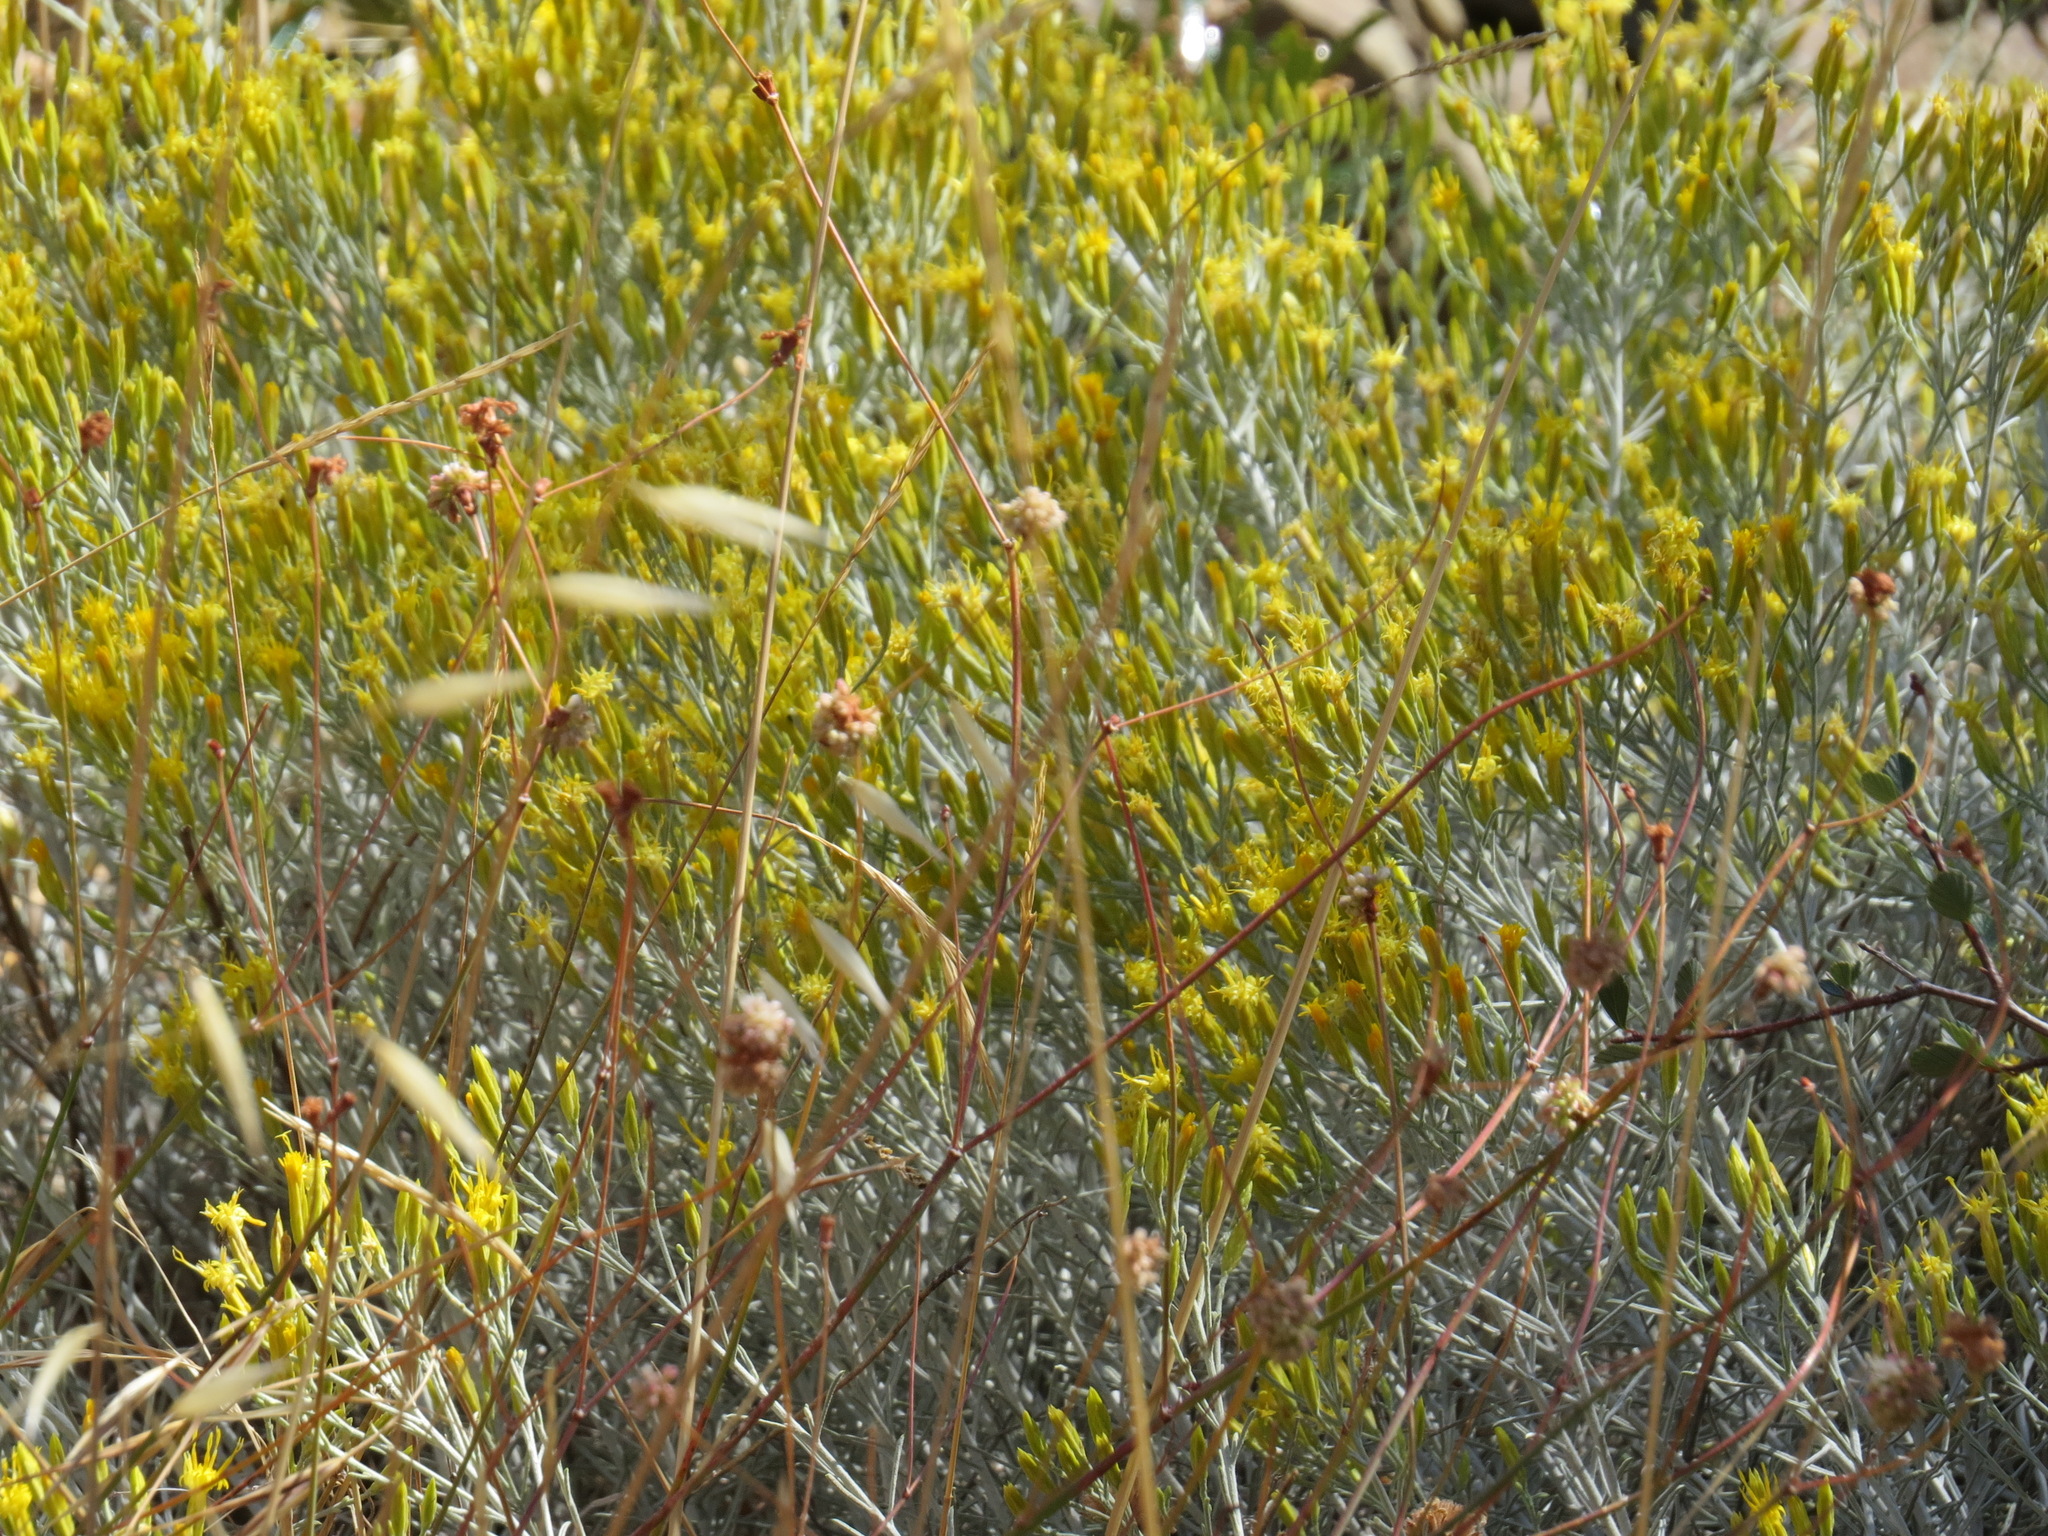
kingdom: Plantae
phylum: Tracheophyta
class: Magnoliopsida
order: Asterales
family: Asteraceae
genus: Ericameria
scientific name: Ericameria nauseosa
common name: Rubber rabbitbrush
